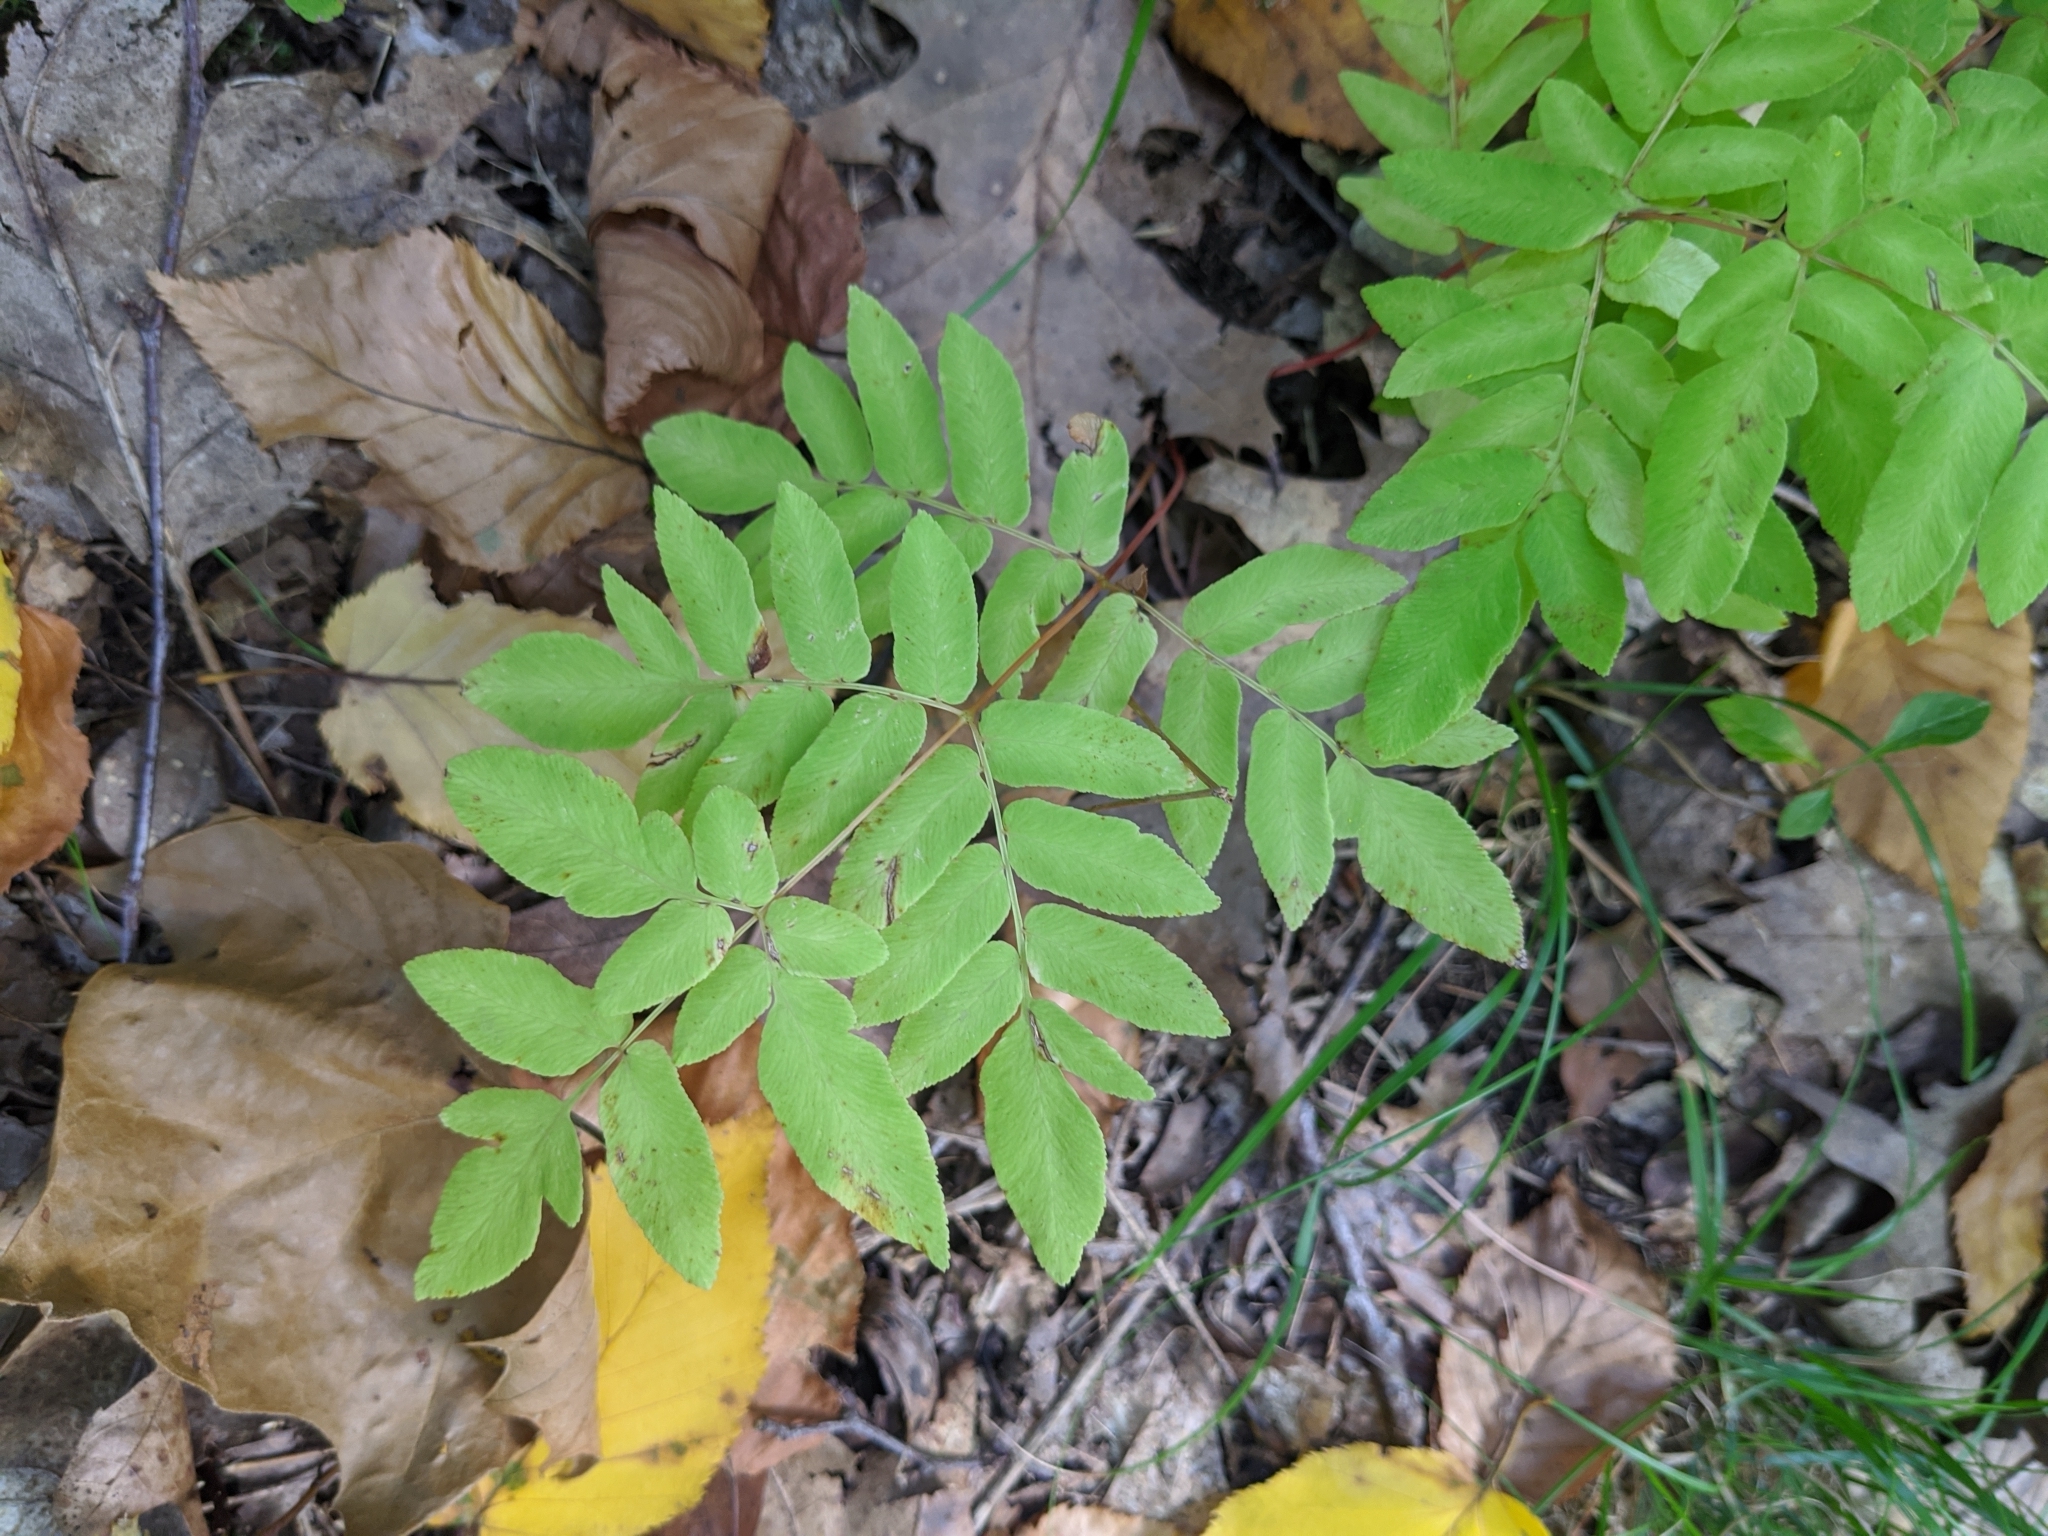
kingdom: Plantae
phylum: Tracheophyta
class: Polypodiopsida
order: Osmundales
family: Osmundaceae
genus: Osmunda
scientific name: Osmunda spectabilis
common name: American royal fern
